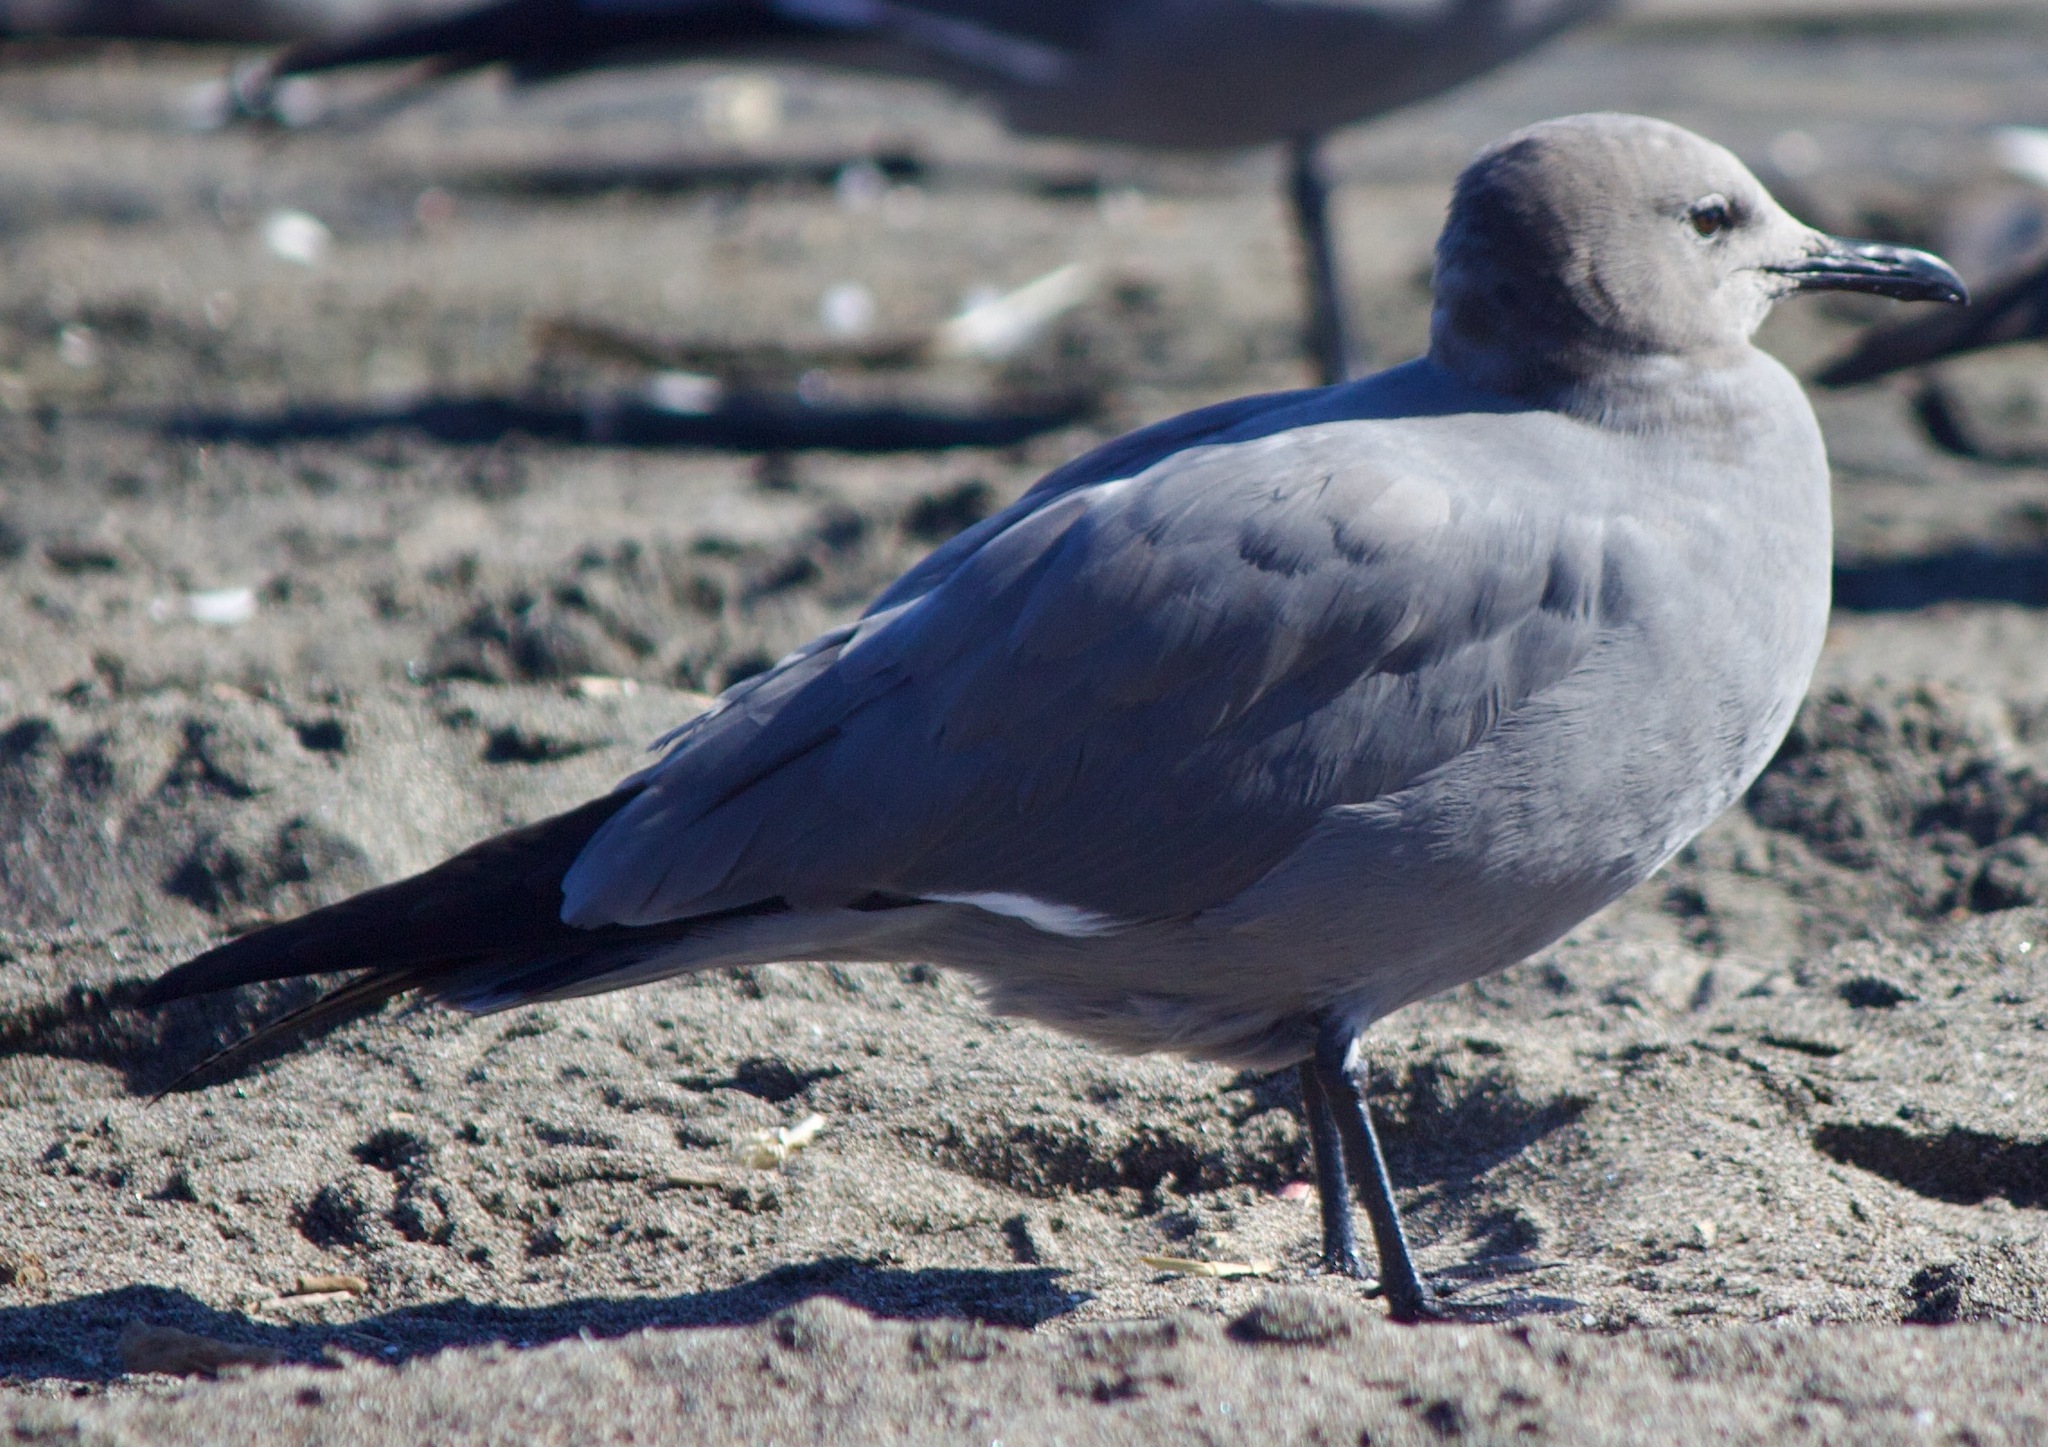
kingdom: Animalia
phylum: Chordata
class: Aves
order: Charadriiformes
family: Laridae
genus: Leucophaeus
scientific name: Leucophaeus modestus
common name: Gray gull
